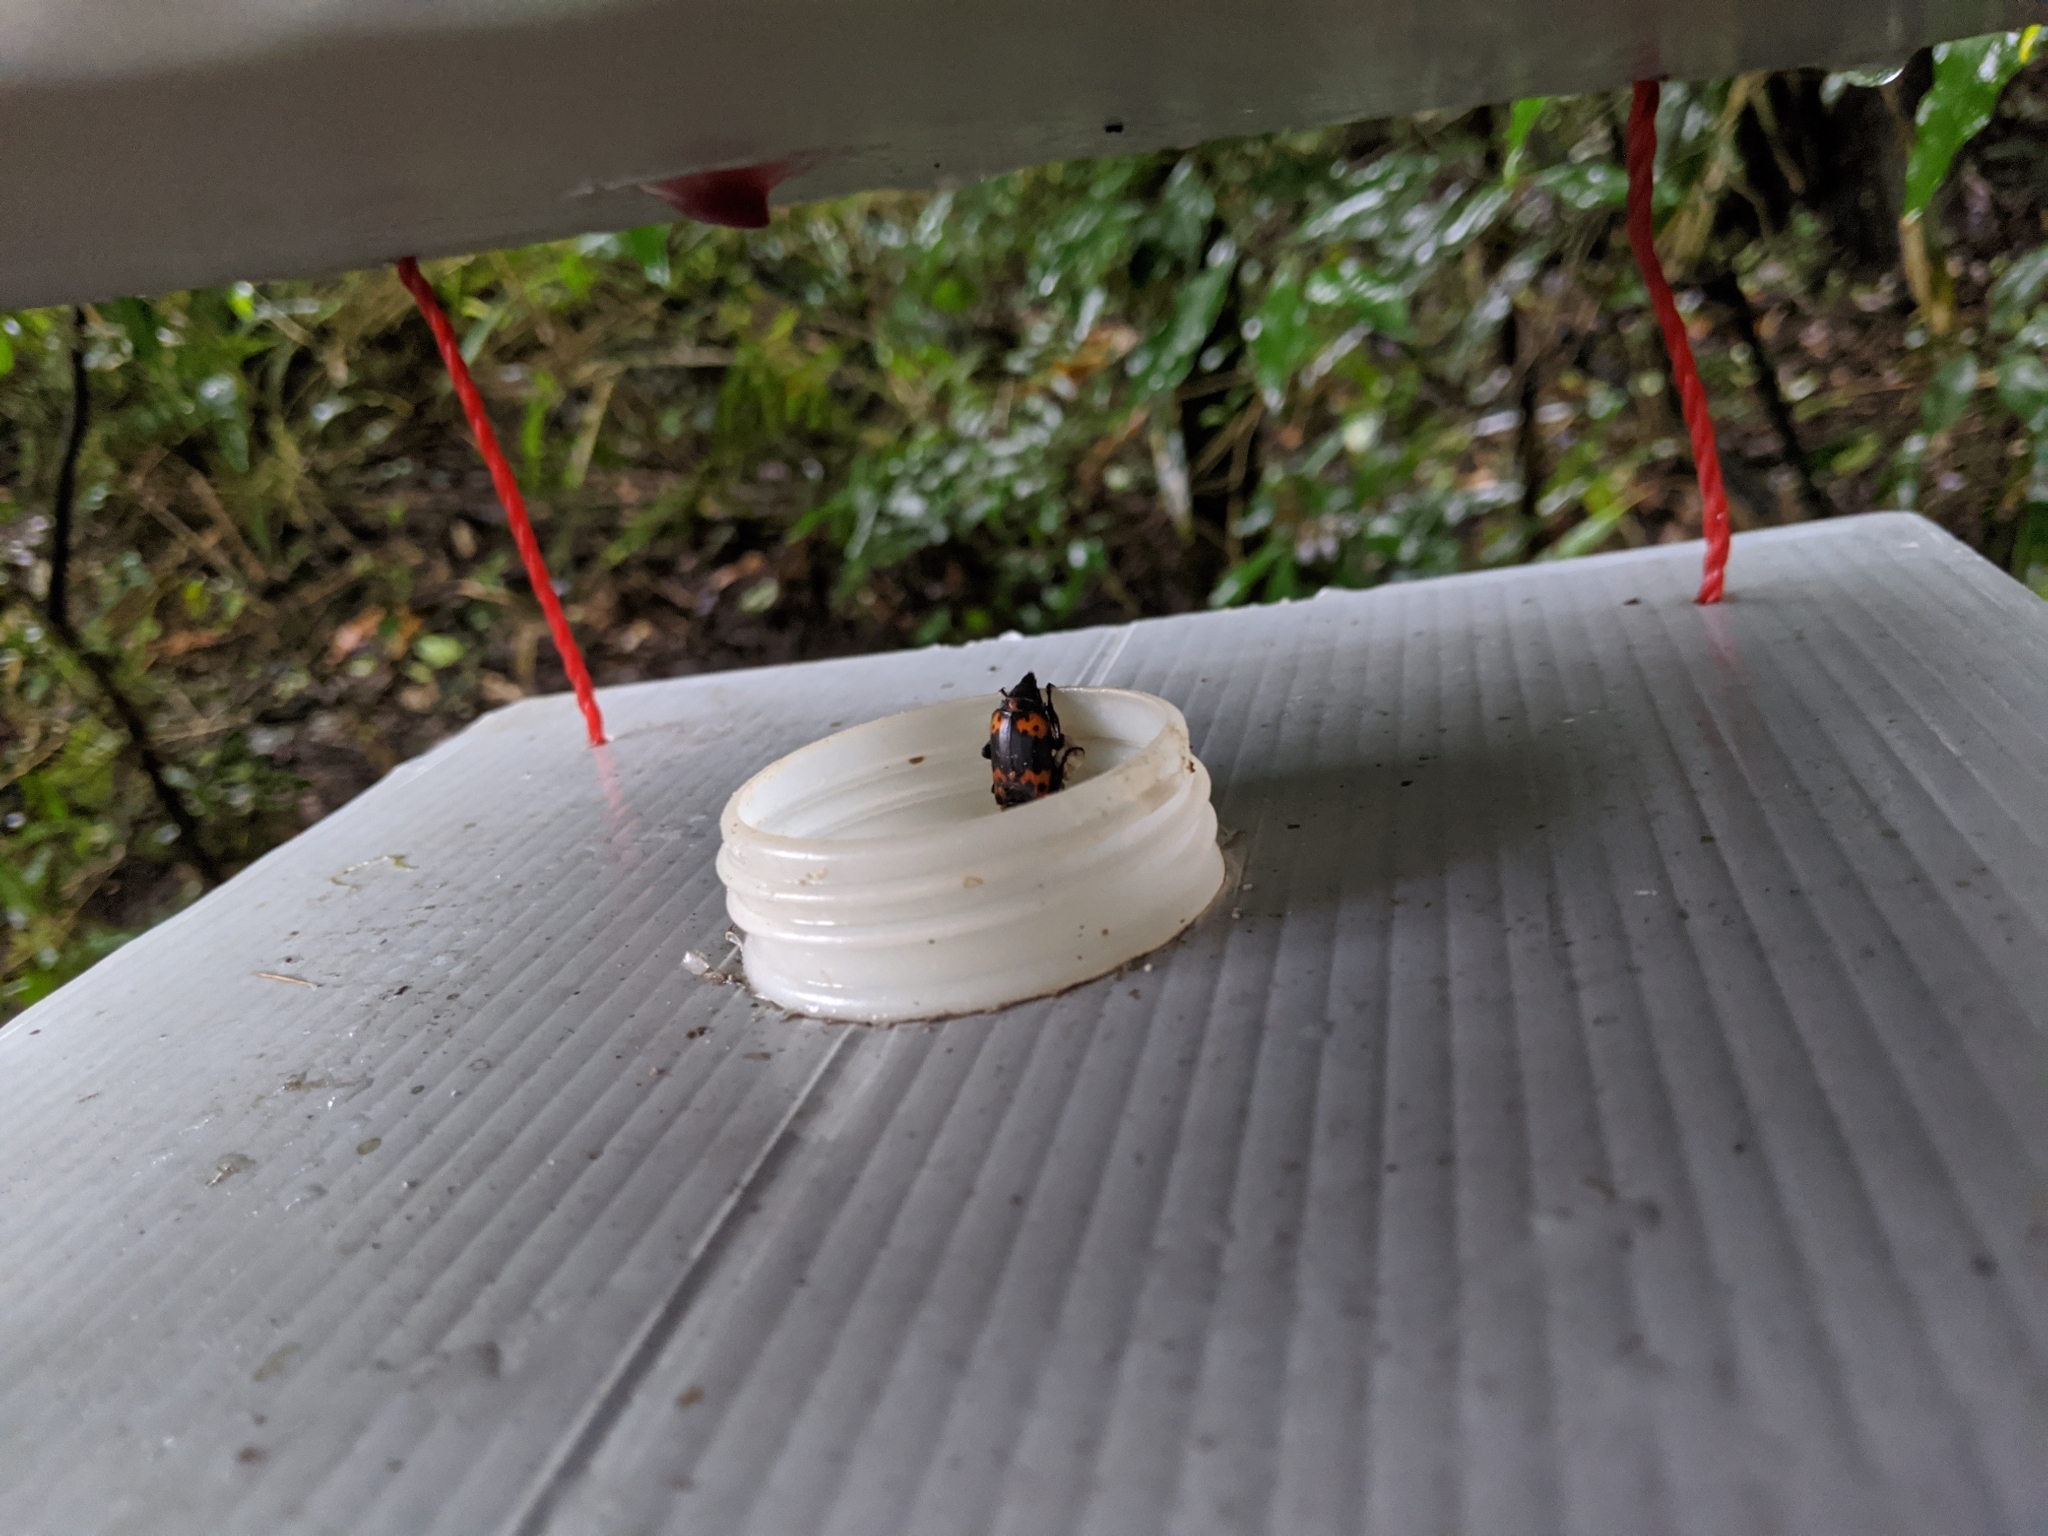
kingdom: Animalia
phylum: Arthropoda
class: Insecta
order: Coleoptera
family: Staphylinidae
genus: Nicrophorus
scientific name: Nicrophorus nepalensis
